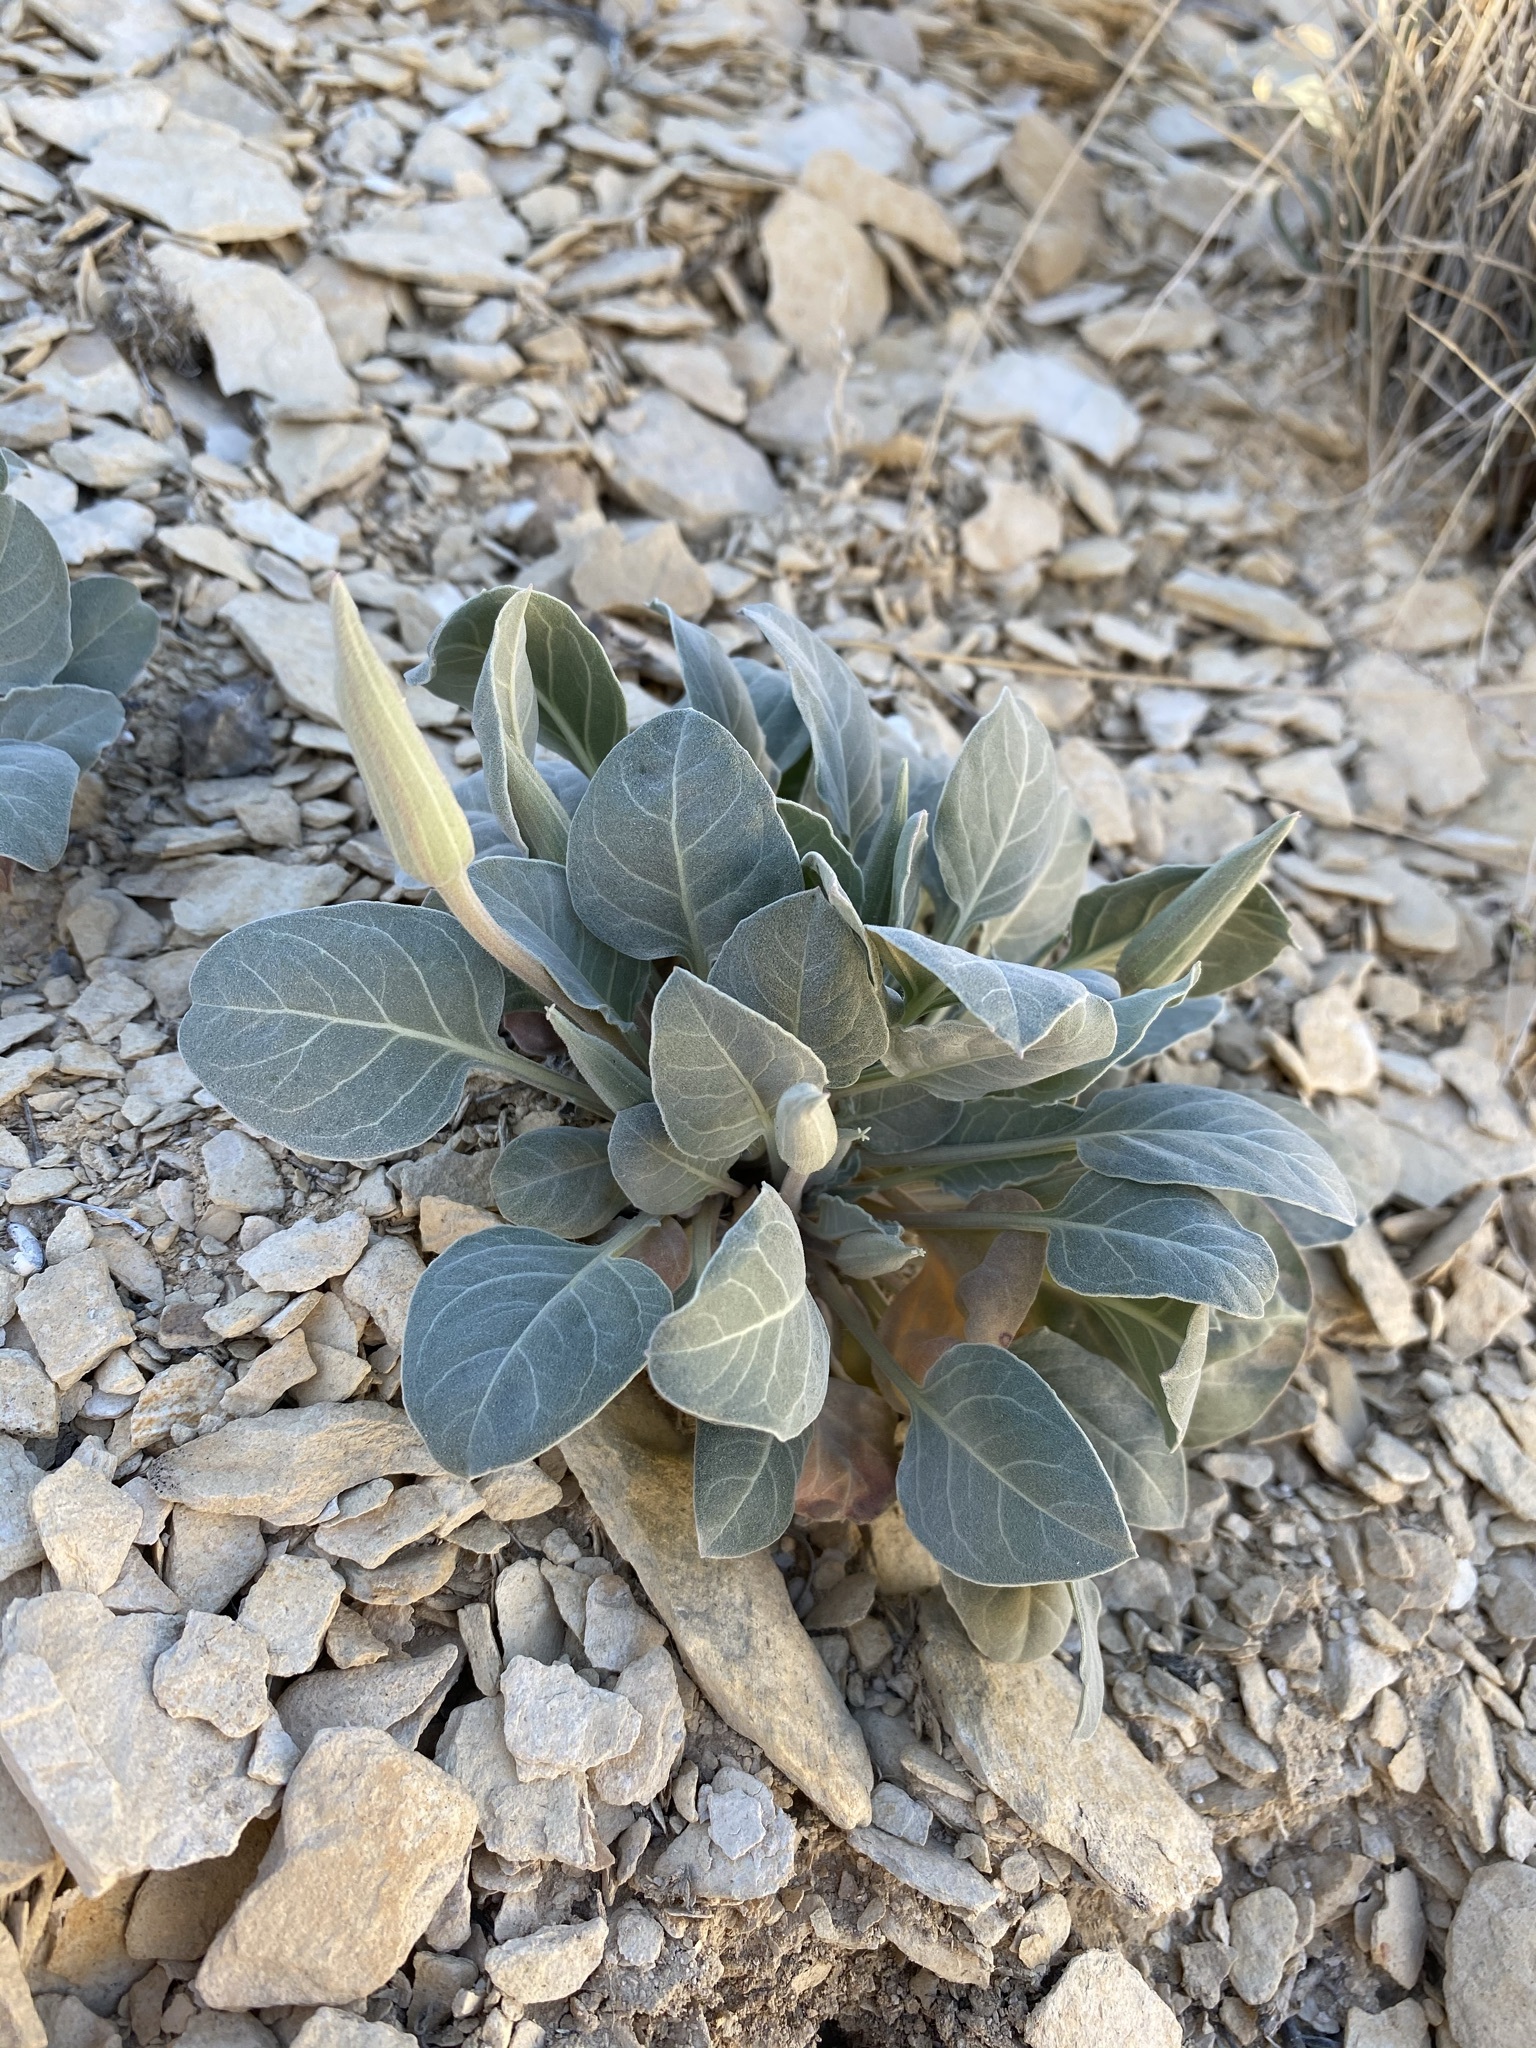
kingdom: Plantae
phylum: Tracheophyta
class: Magnoliopsida
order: Myrtales
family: Onagraceae
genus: Oenothera
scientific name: Oenothera brachycarpa
